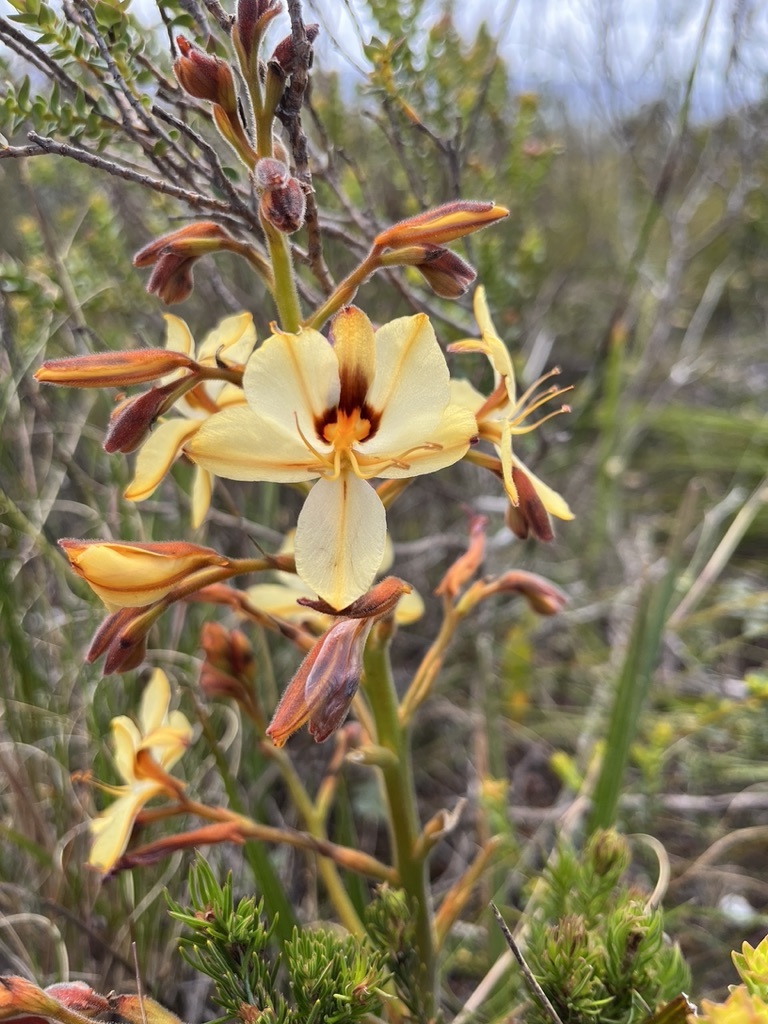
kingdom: Plantae
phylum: Tracheophyta
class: Liliopsida
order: Commelinales
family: Haemodoraceae
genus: Wachendorfia
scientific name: Wachendorfia paniculata
